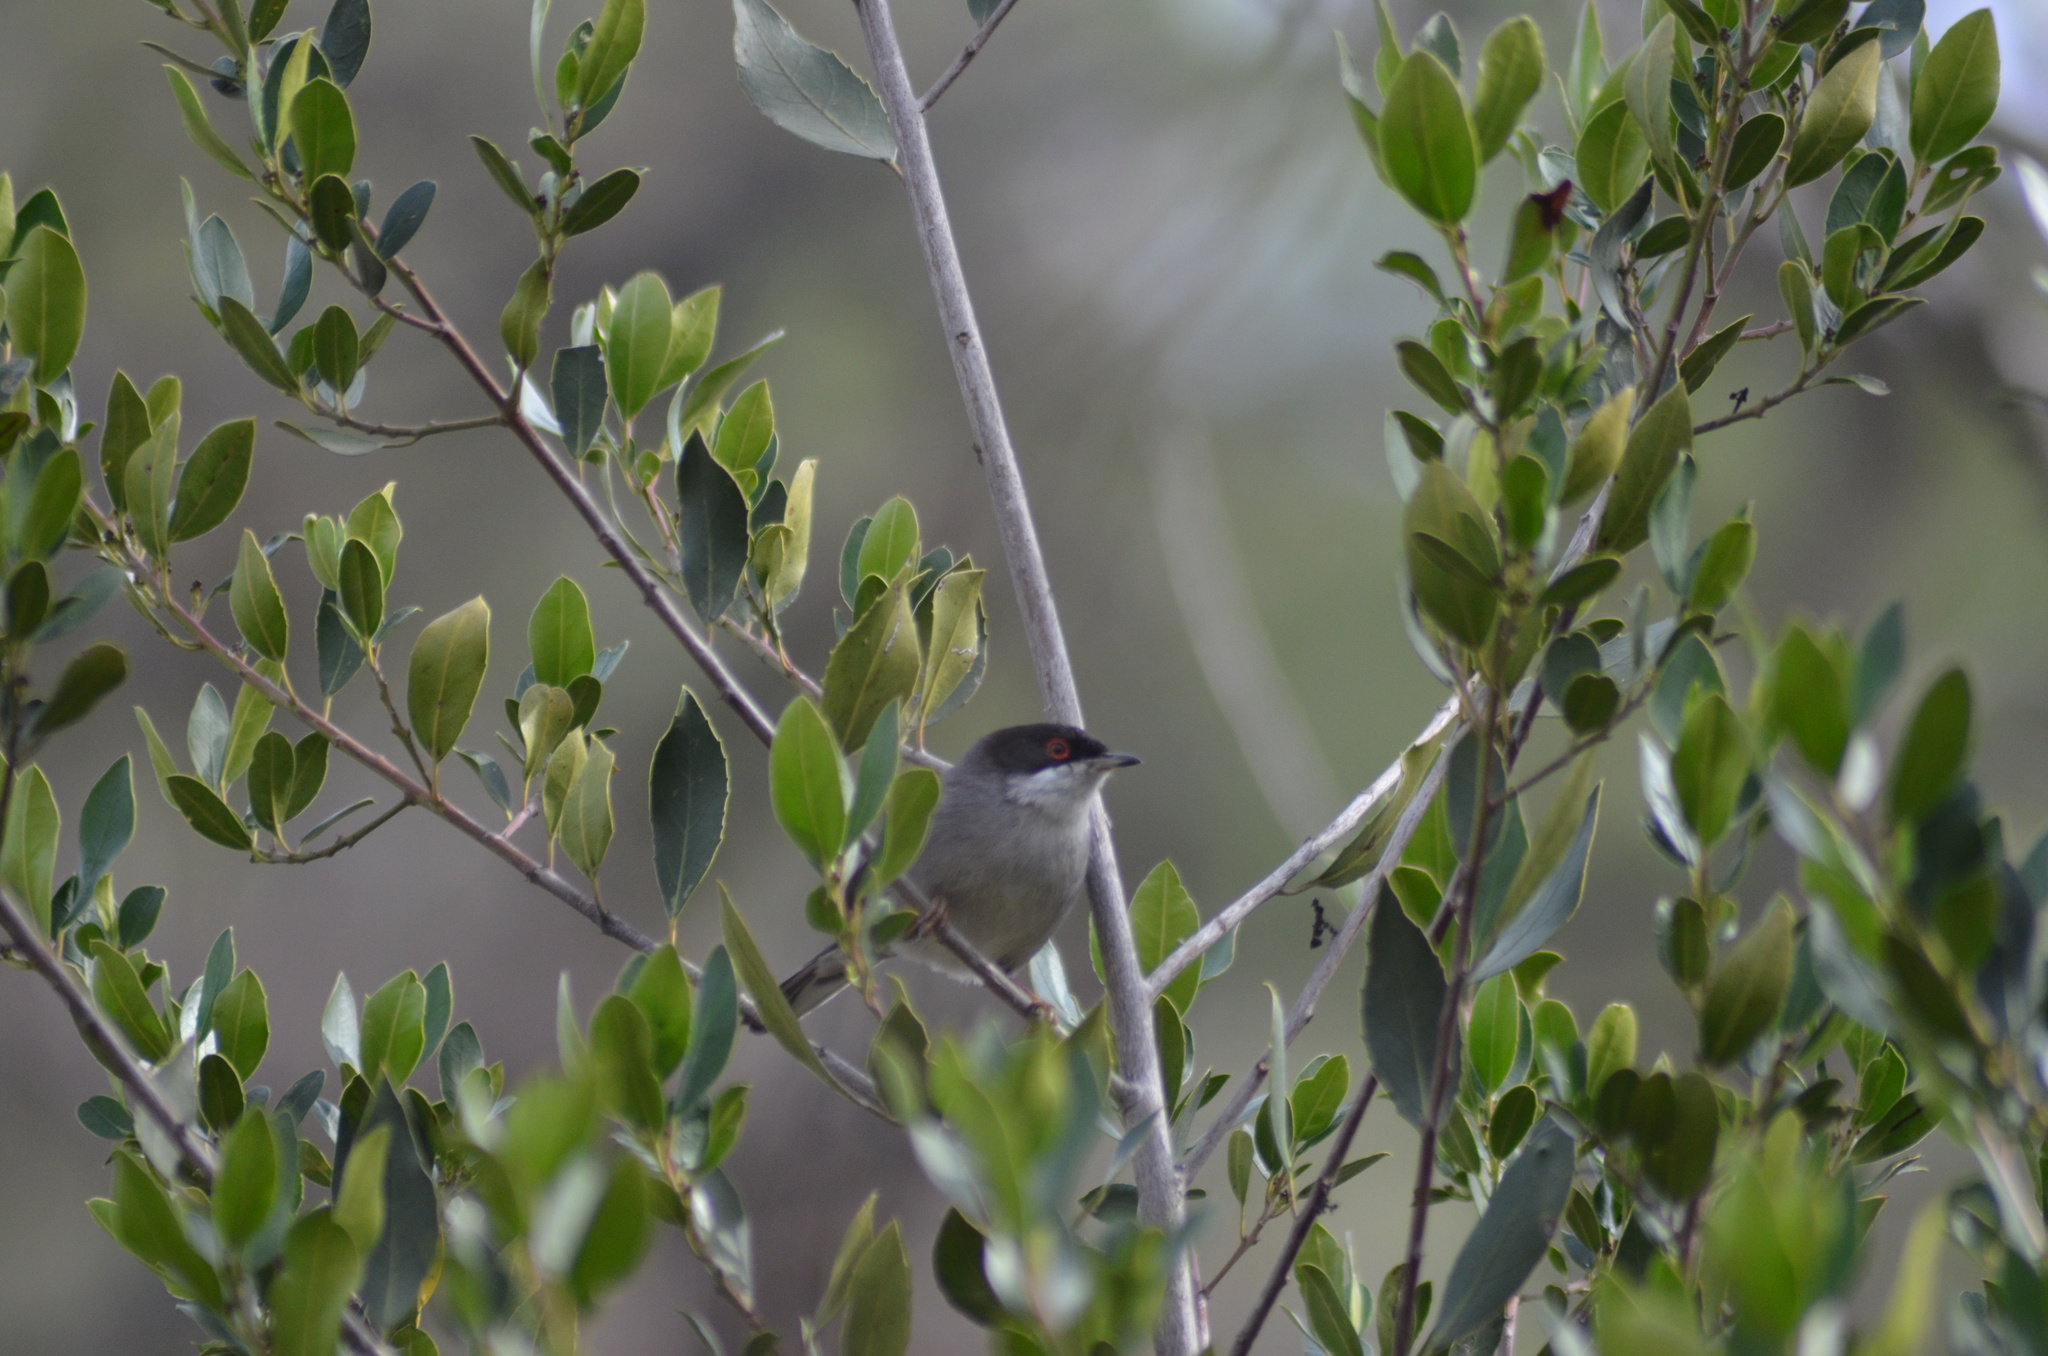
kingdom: Animalia
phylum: Chordata
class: Aves
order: Passeriformes
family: Sylviidae
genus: Curruca
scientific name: Curruca melanocephala
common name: Sardinian warbler
